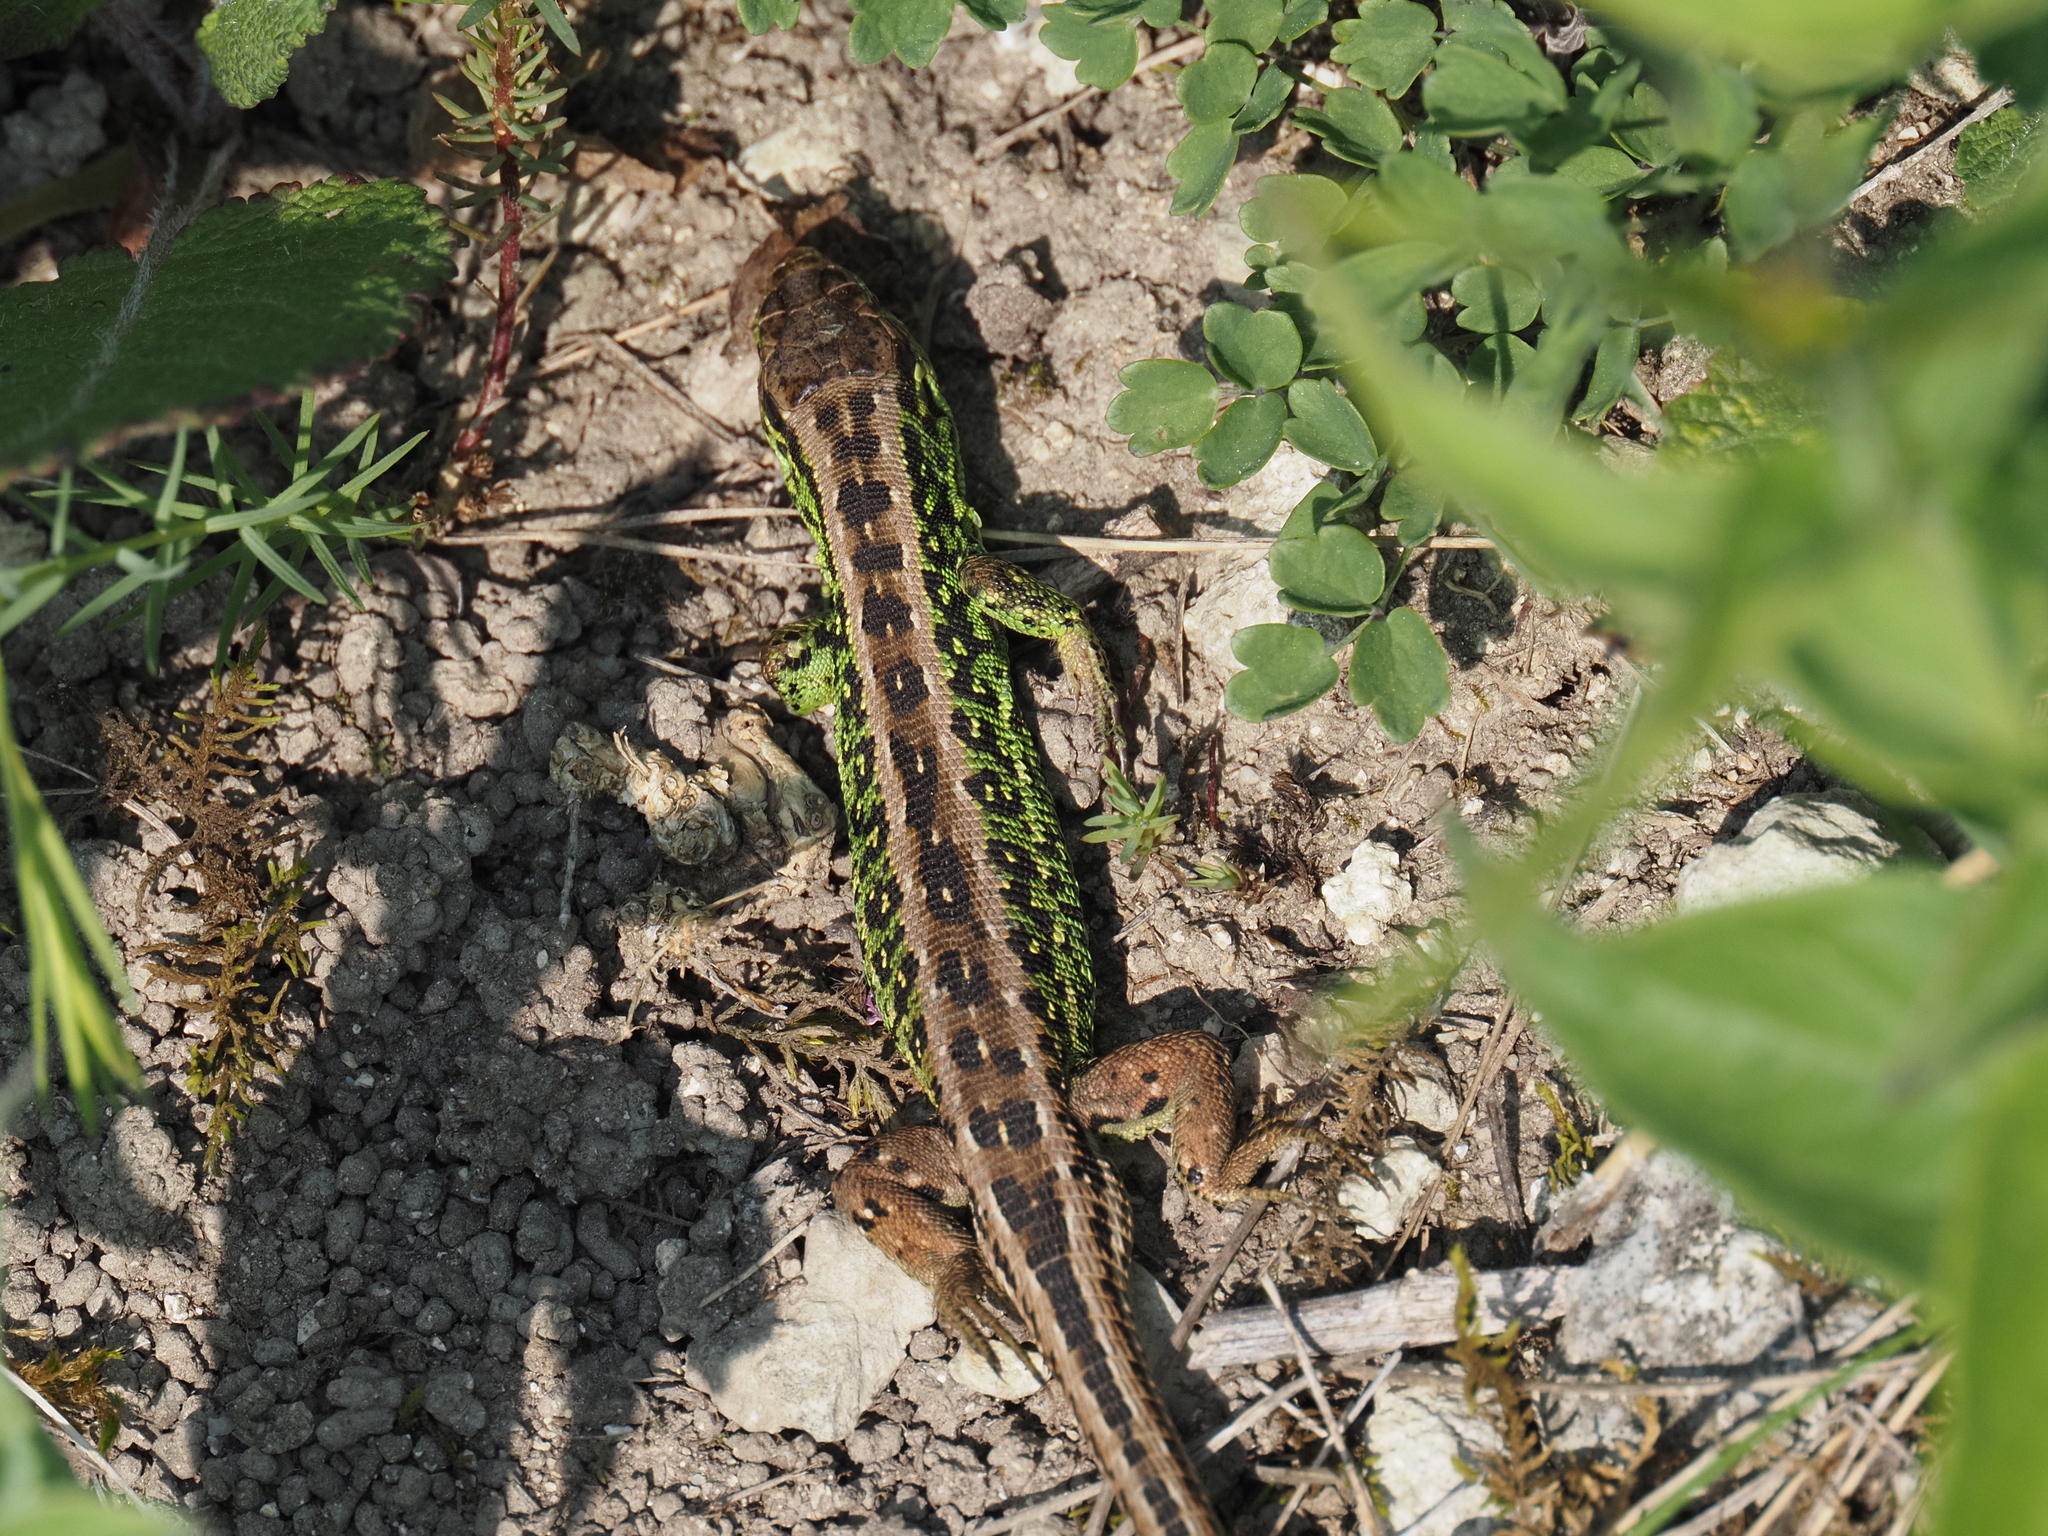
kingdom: Animalia
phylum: Chordata
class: Squamata
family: Lacertidae
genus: Lacerta
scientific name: Lacerta agilis
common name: Sand lizard
